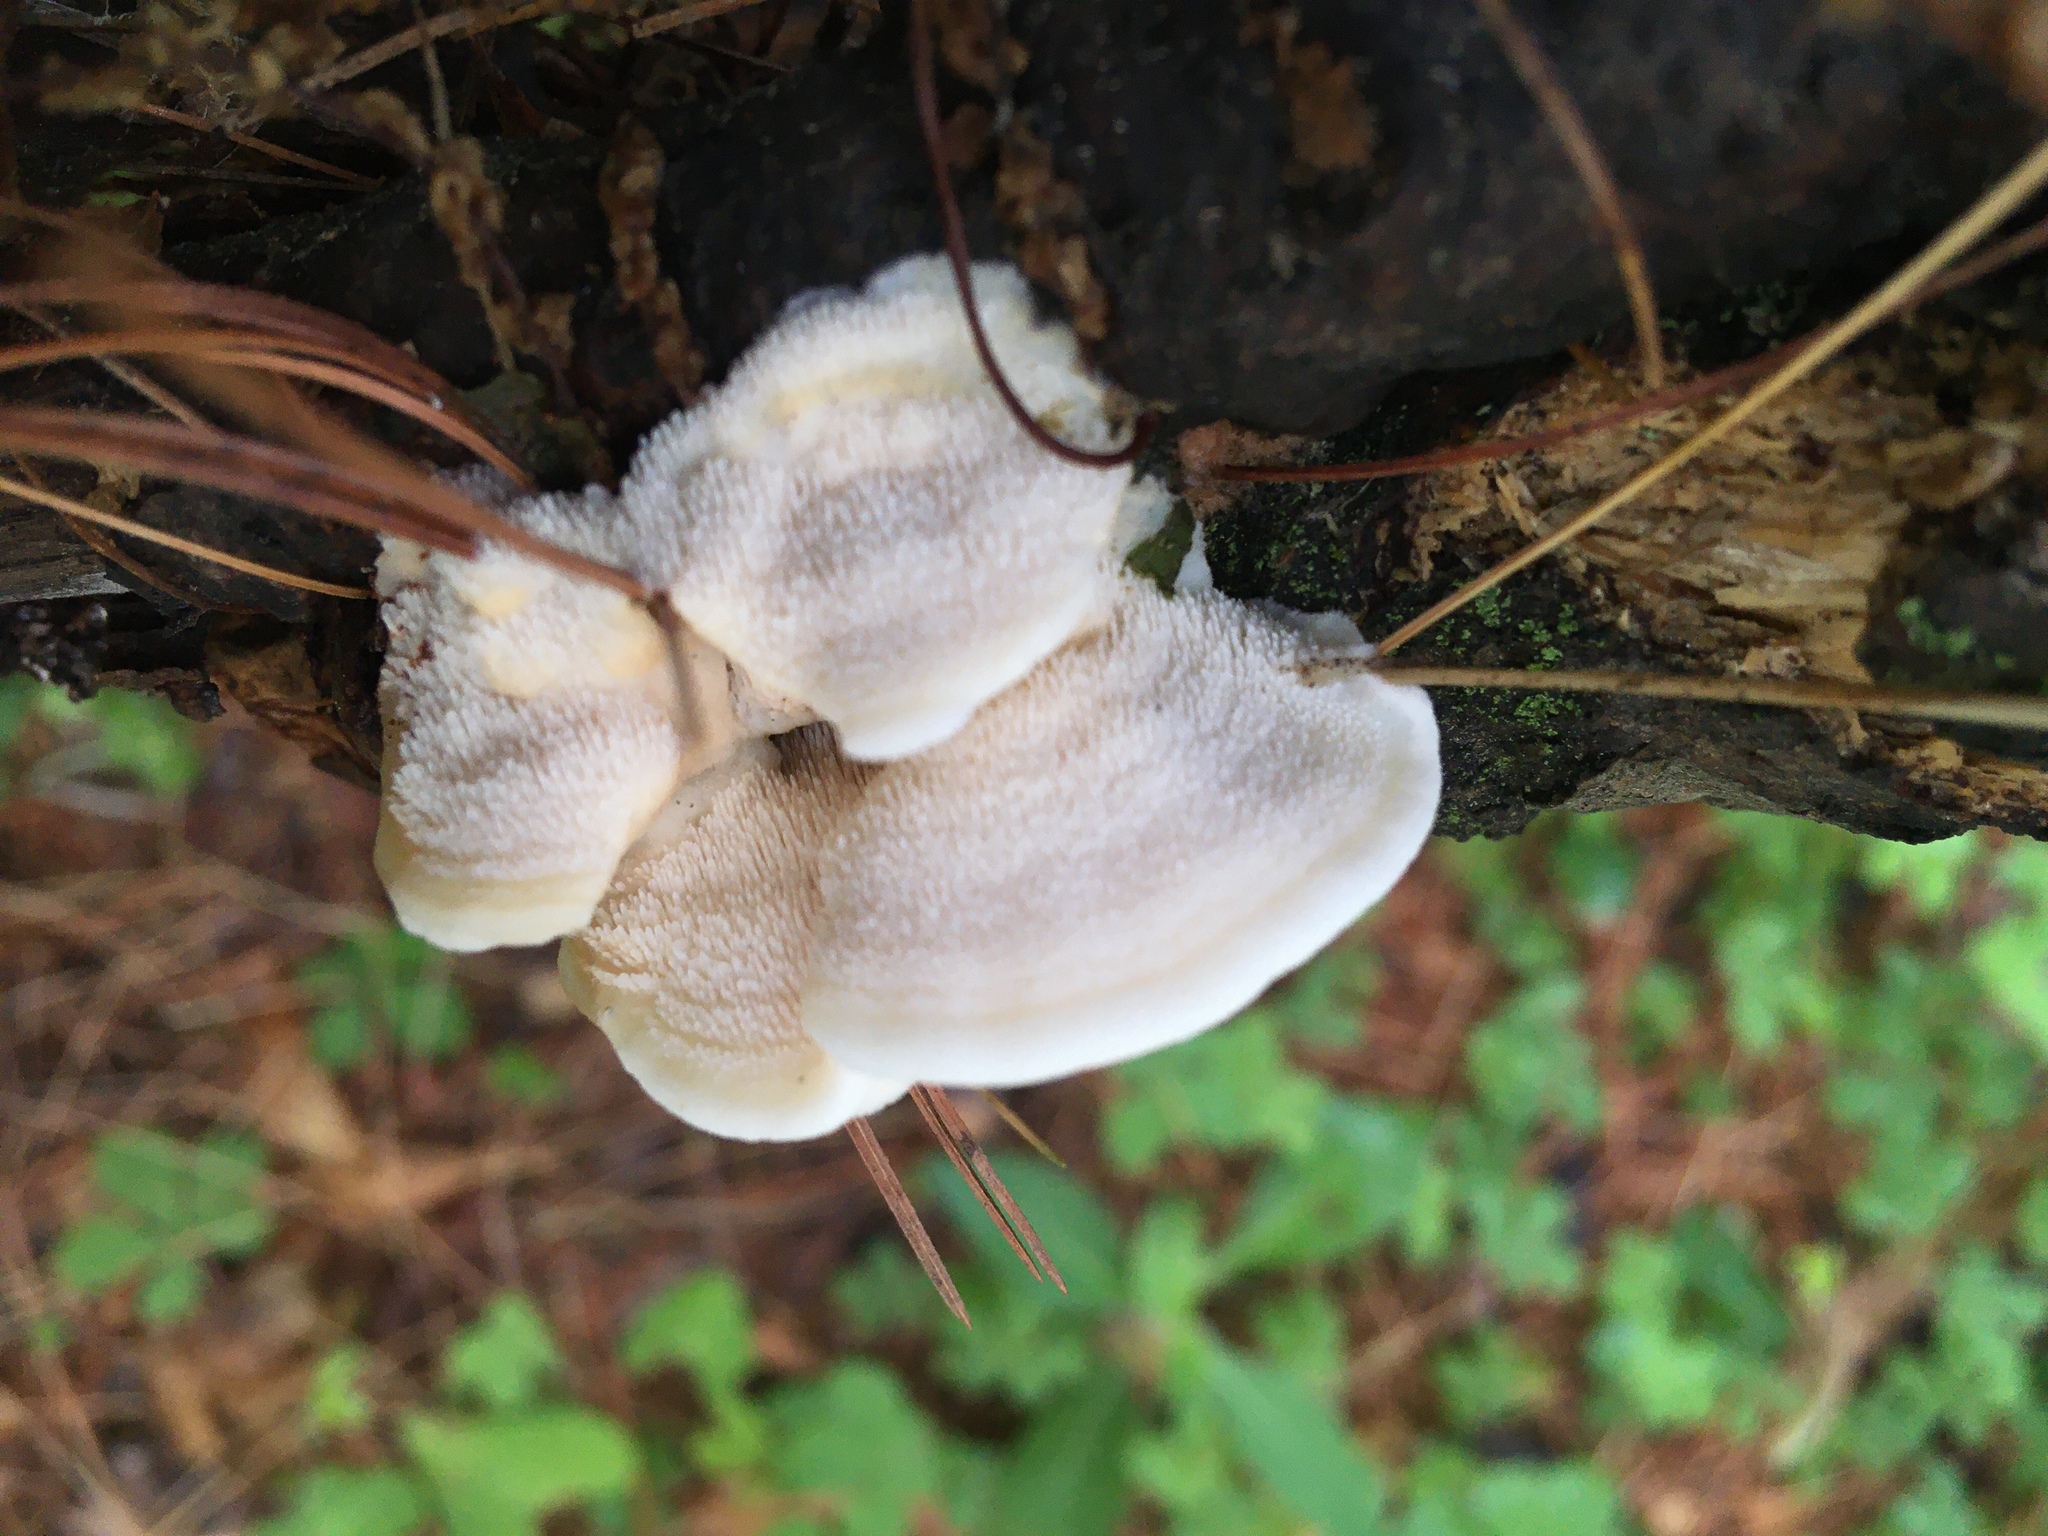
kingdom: Fungi
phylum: Basidiomycota
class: Agaricomycetes
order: Polyporales
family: Meruliaceae
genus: Donkia
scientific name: Donkia pulcherrima
